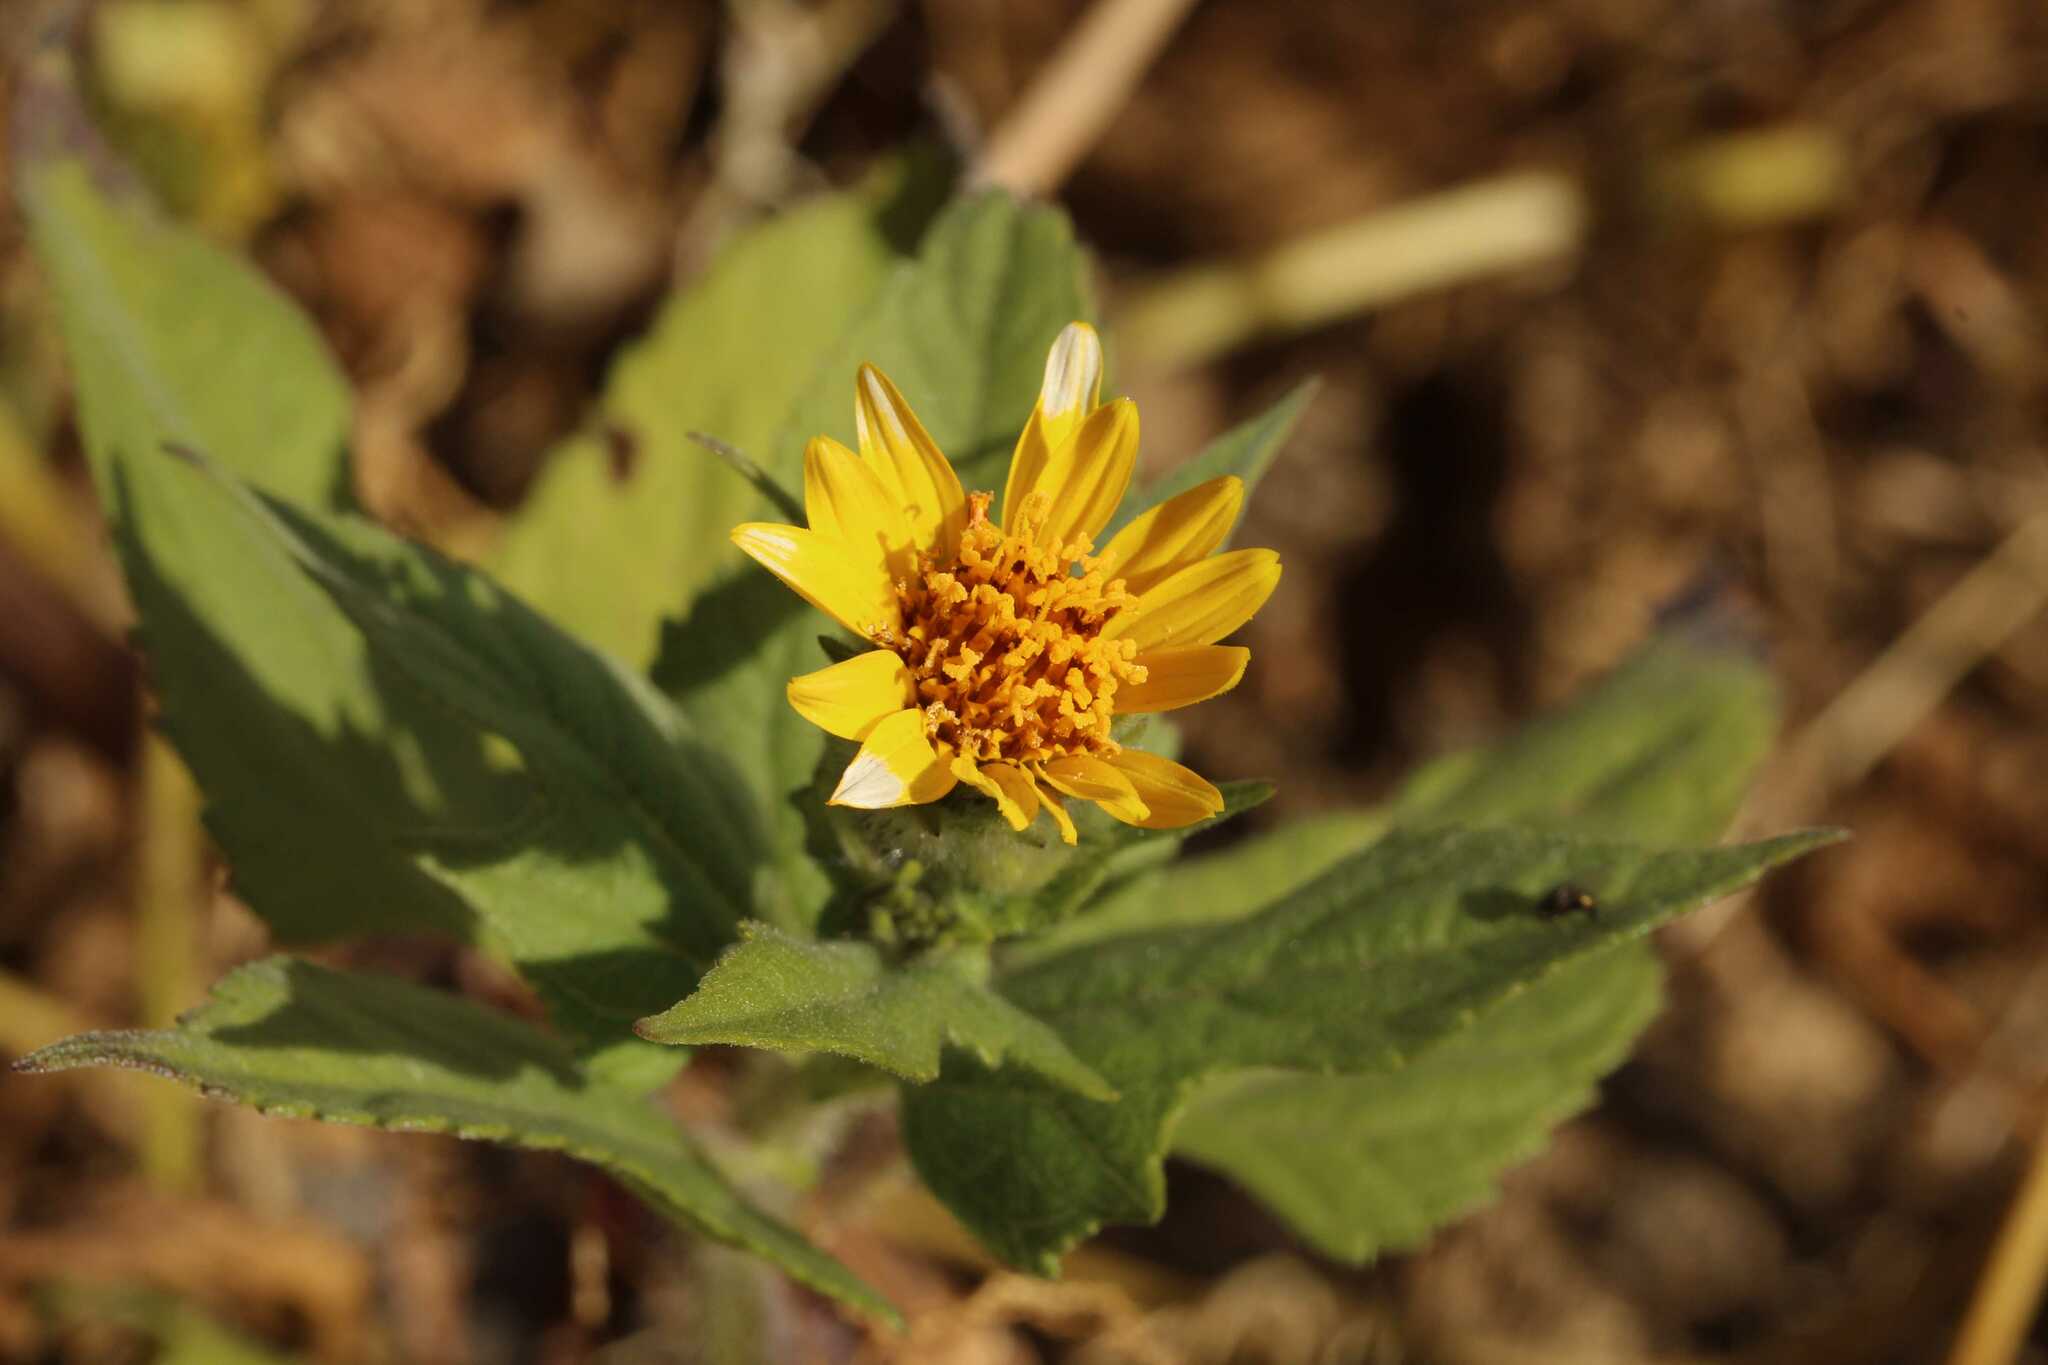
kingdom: Plantae
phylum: Tracheophyta
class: Magnoliopsida
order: Asterales
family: Asteraceae
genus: Simsia
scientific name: Simsia amplexicaulis
